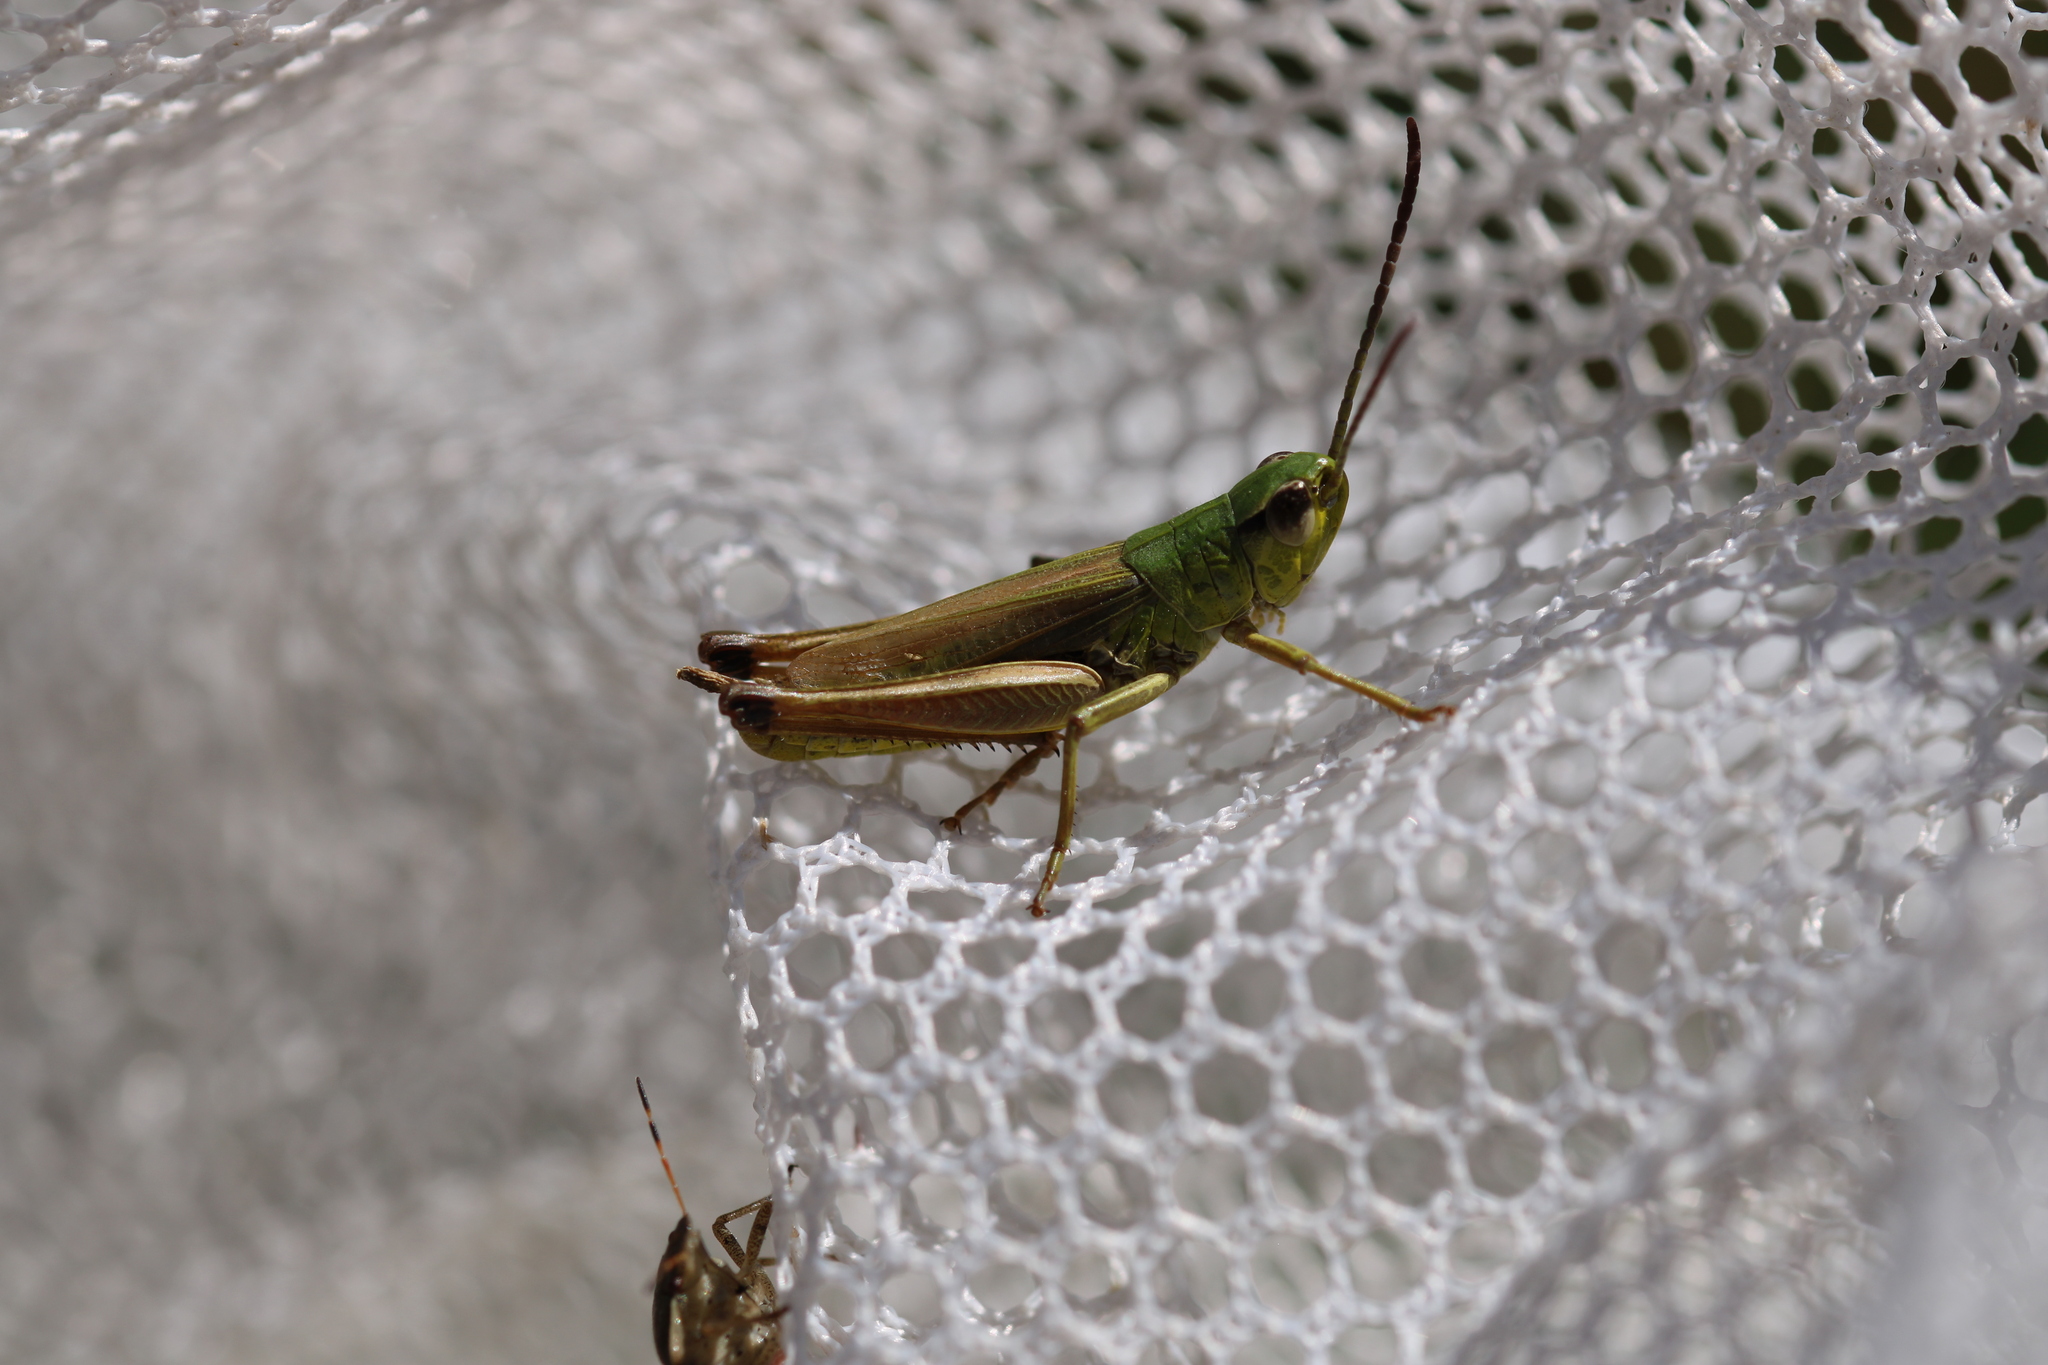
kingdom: Animalia
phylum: Arthropoda
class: Insecta
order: Orthoptera
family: Acrididae
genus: Pseudochorthippus
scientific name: Pseudochorthippus parallelus
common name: Meadow grasshopper
